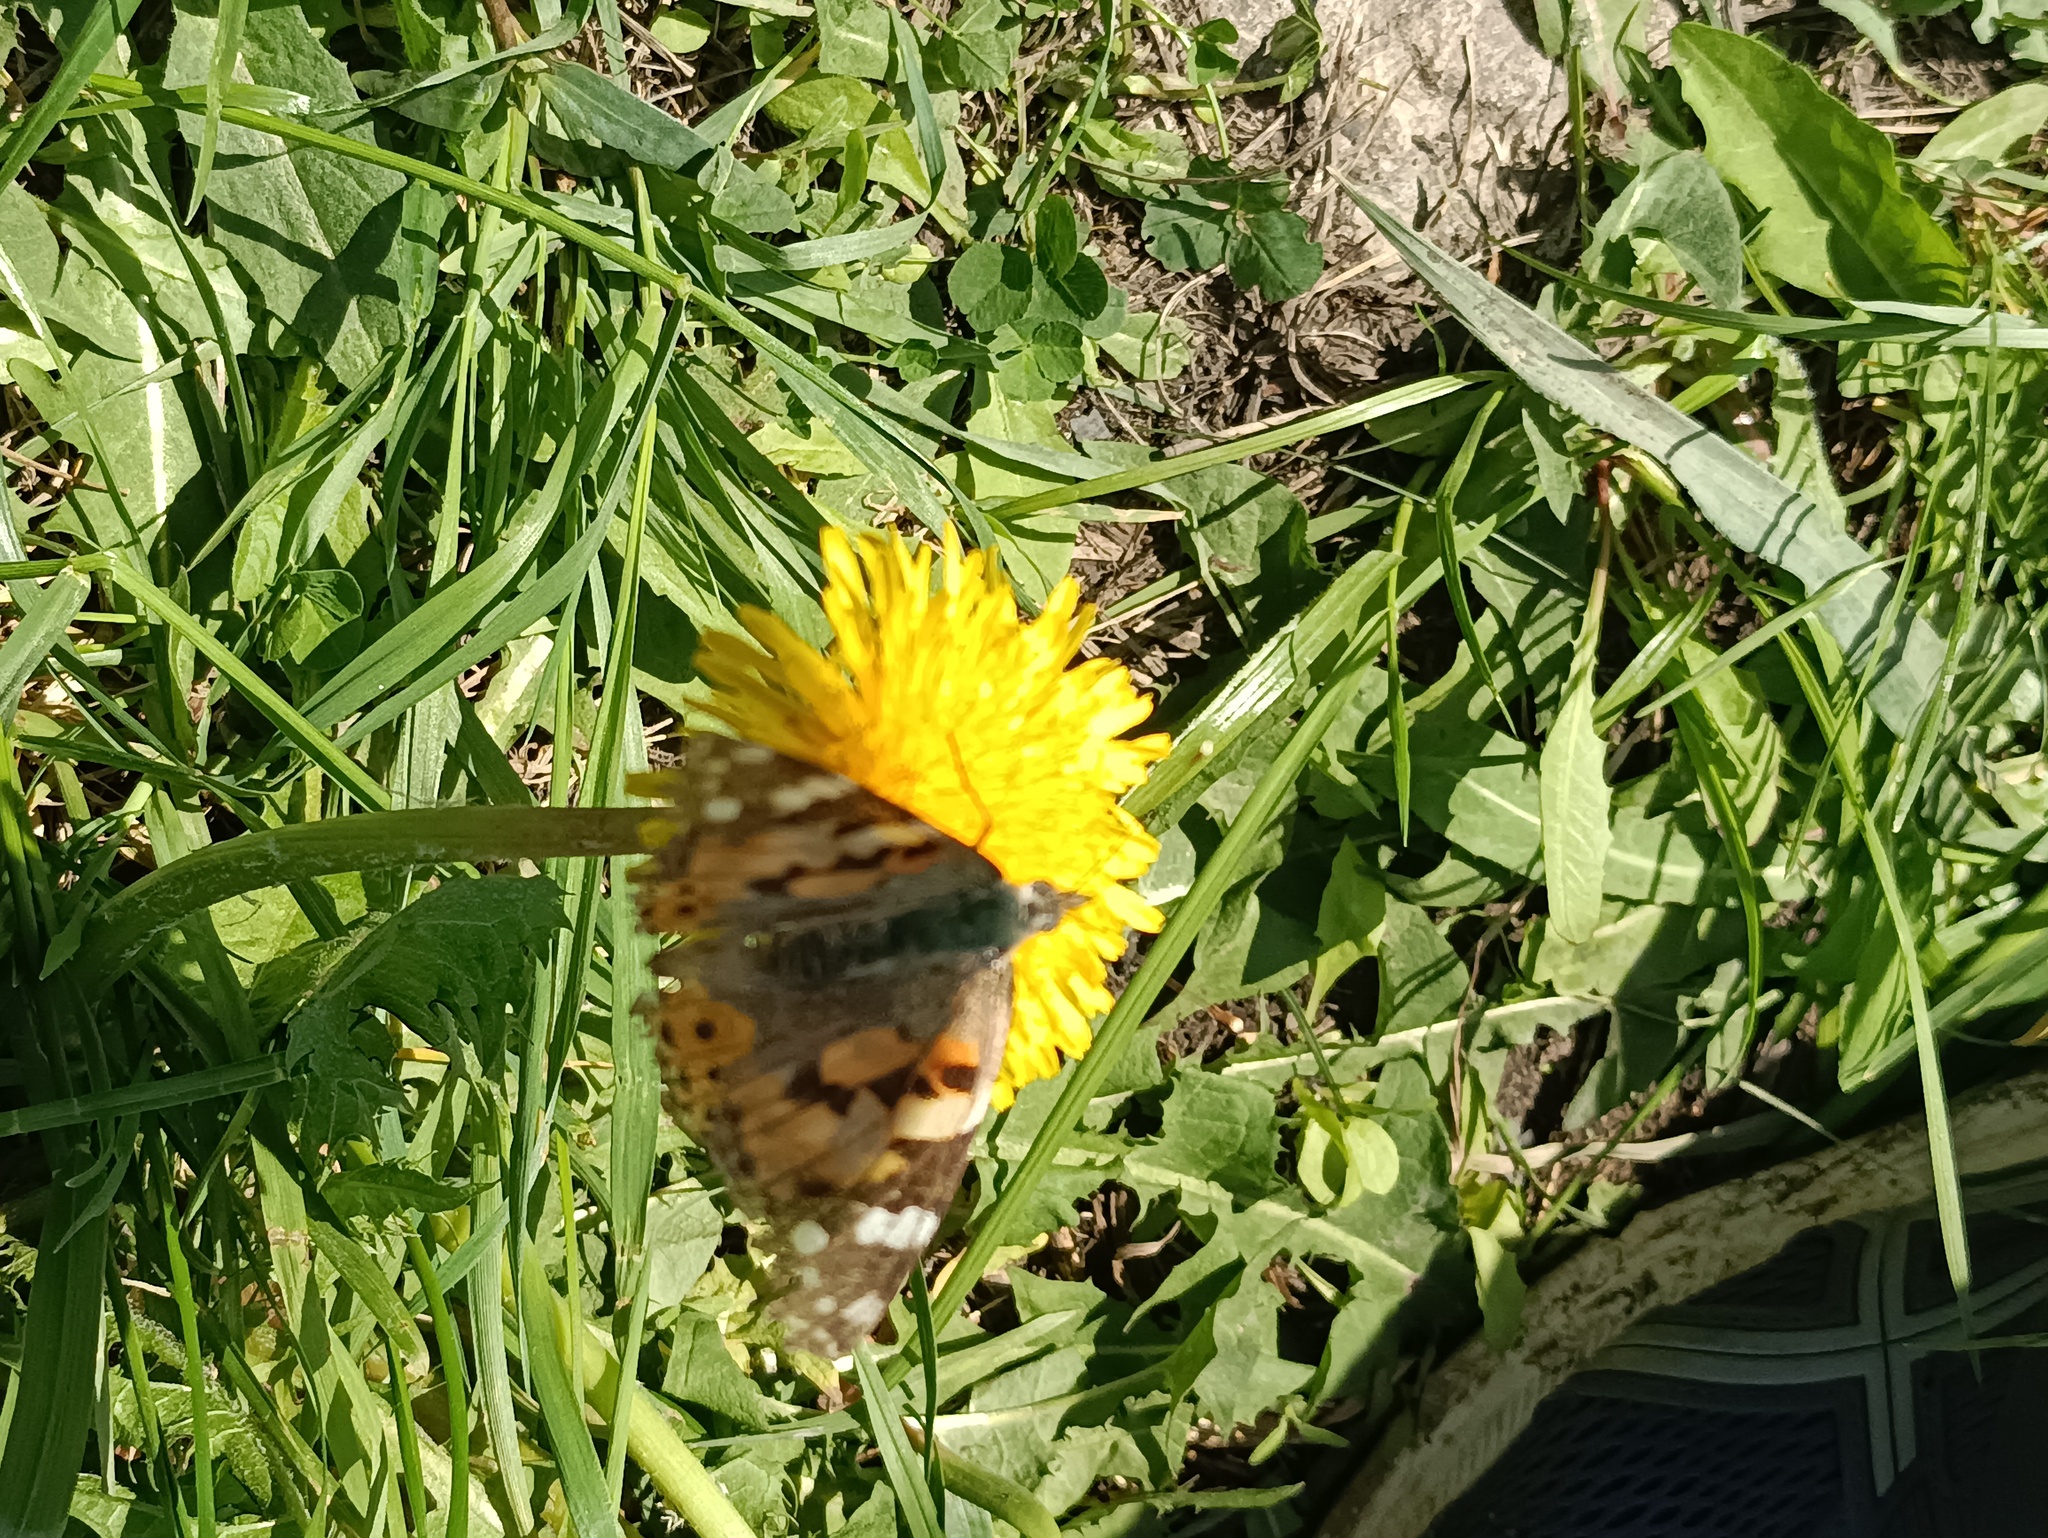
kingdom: Animalia
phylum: Arthropoda
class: Insecta
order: Lepidoptera
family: Nymphalidae
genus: Vanessa
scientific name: Vanessa cardui
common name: Painted lady
